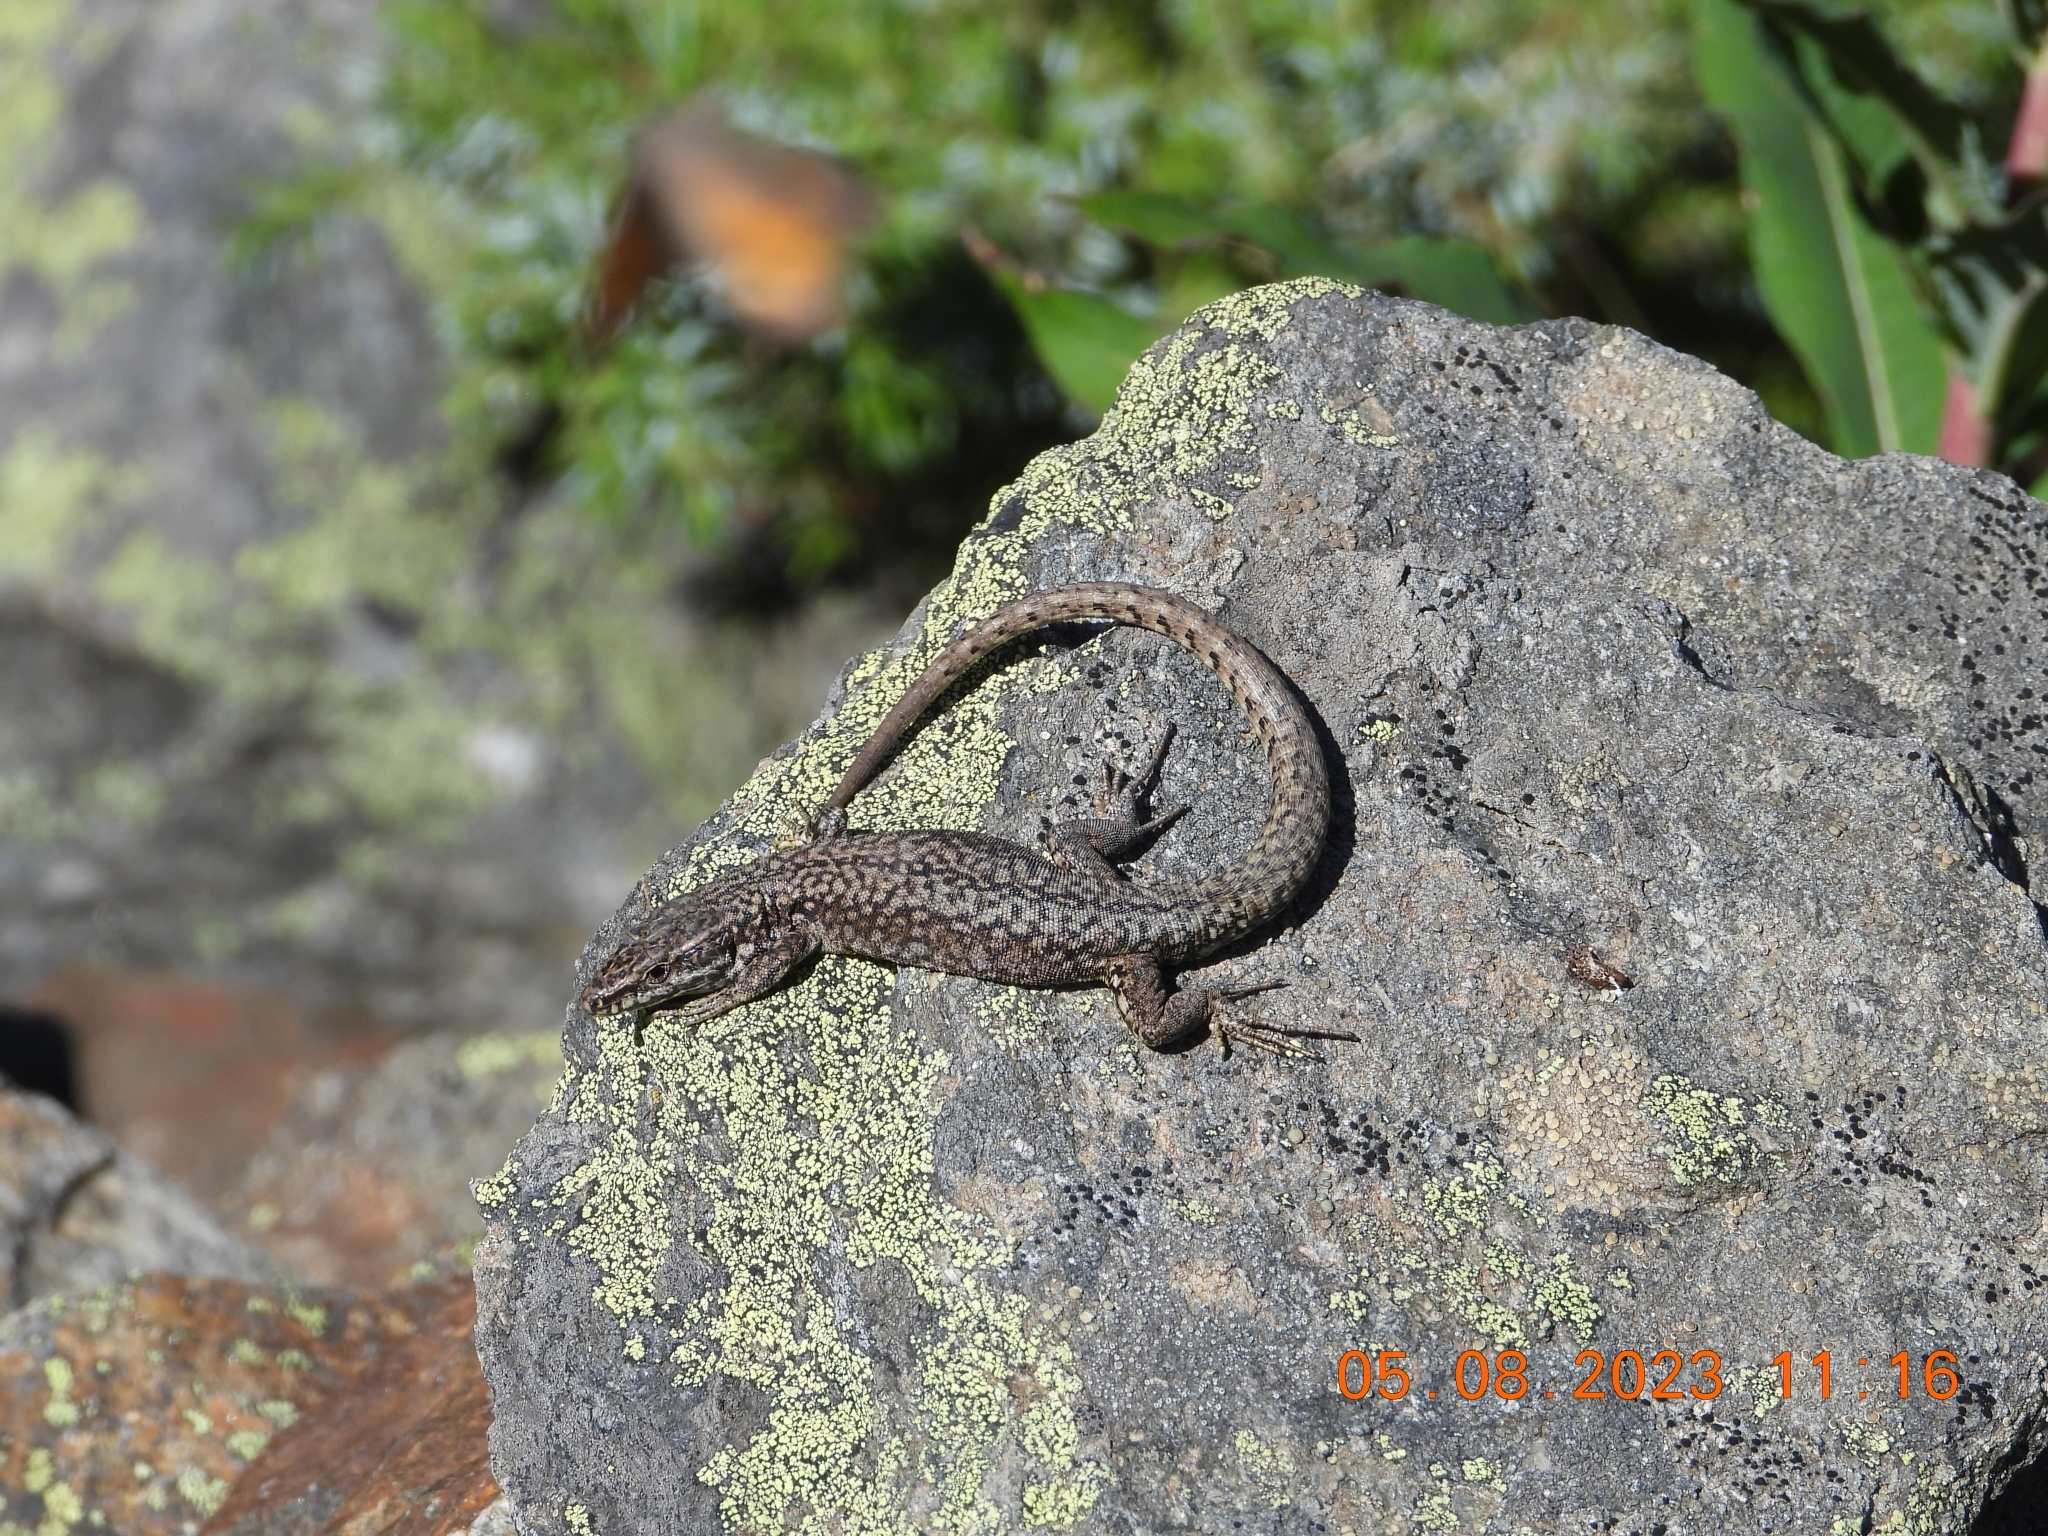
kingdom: Animalia
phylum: Chordata
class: Squamata
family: Lacertidae
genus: Podarcis
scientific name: Podarcis muralis
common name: Common wall lizard
